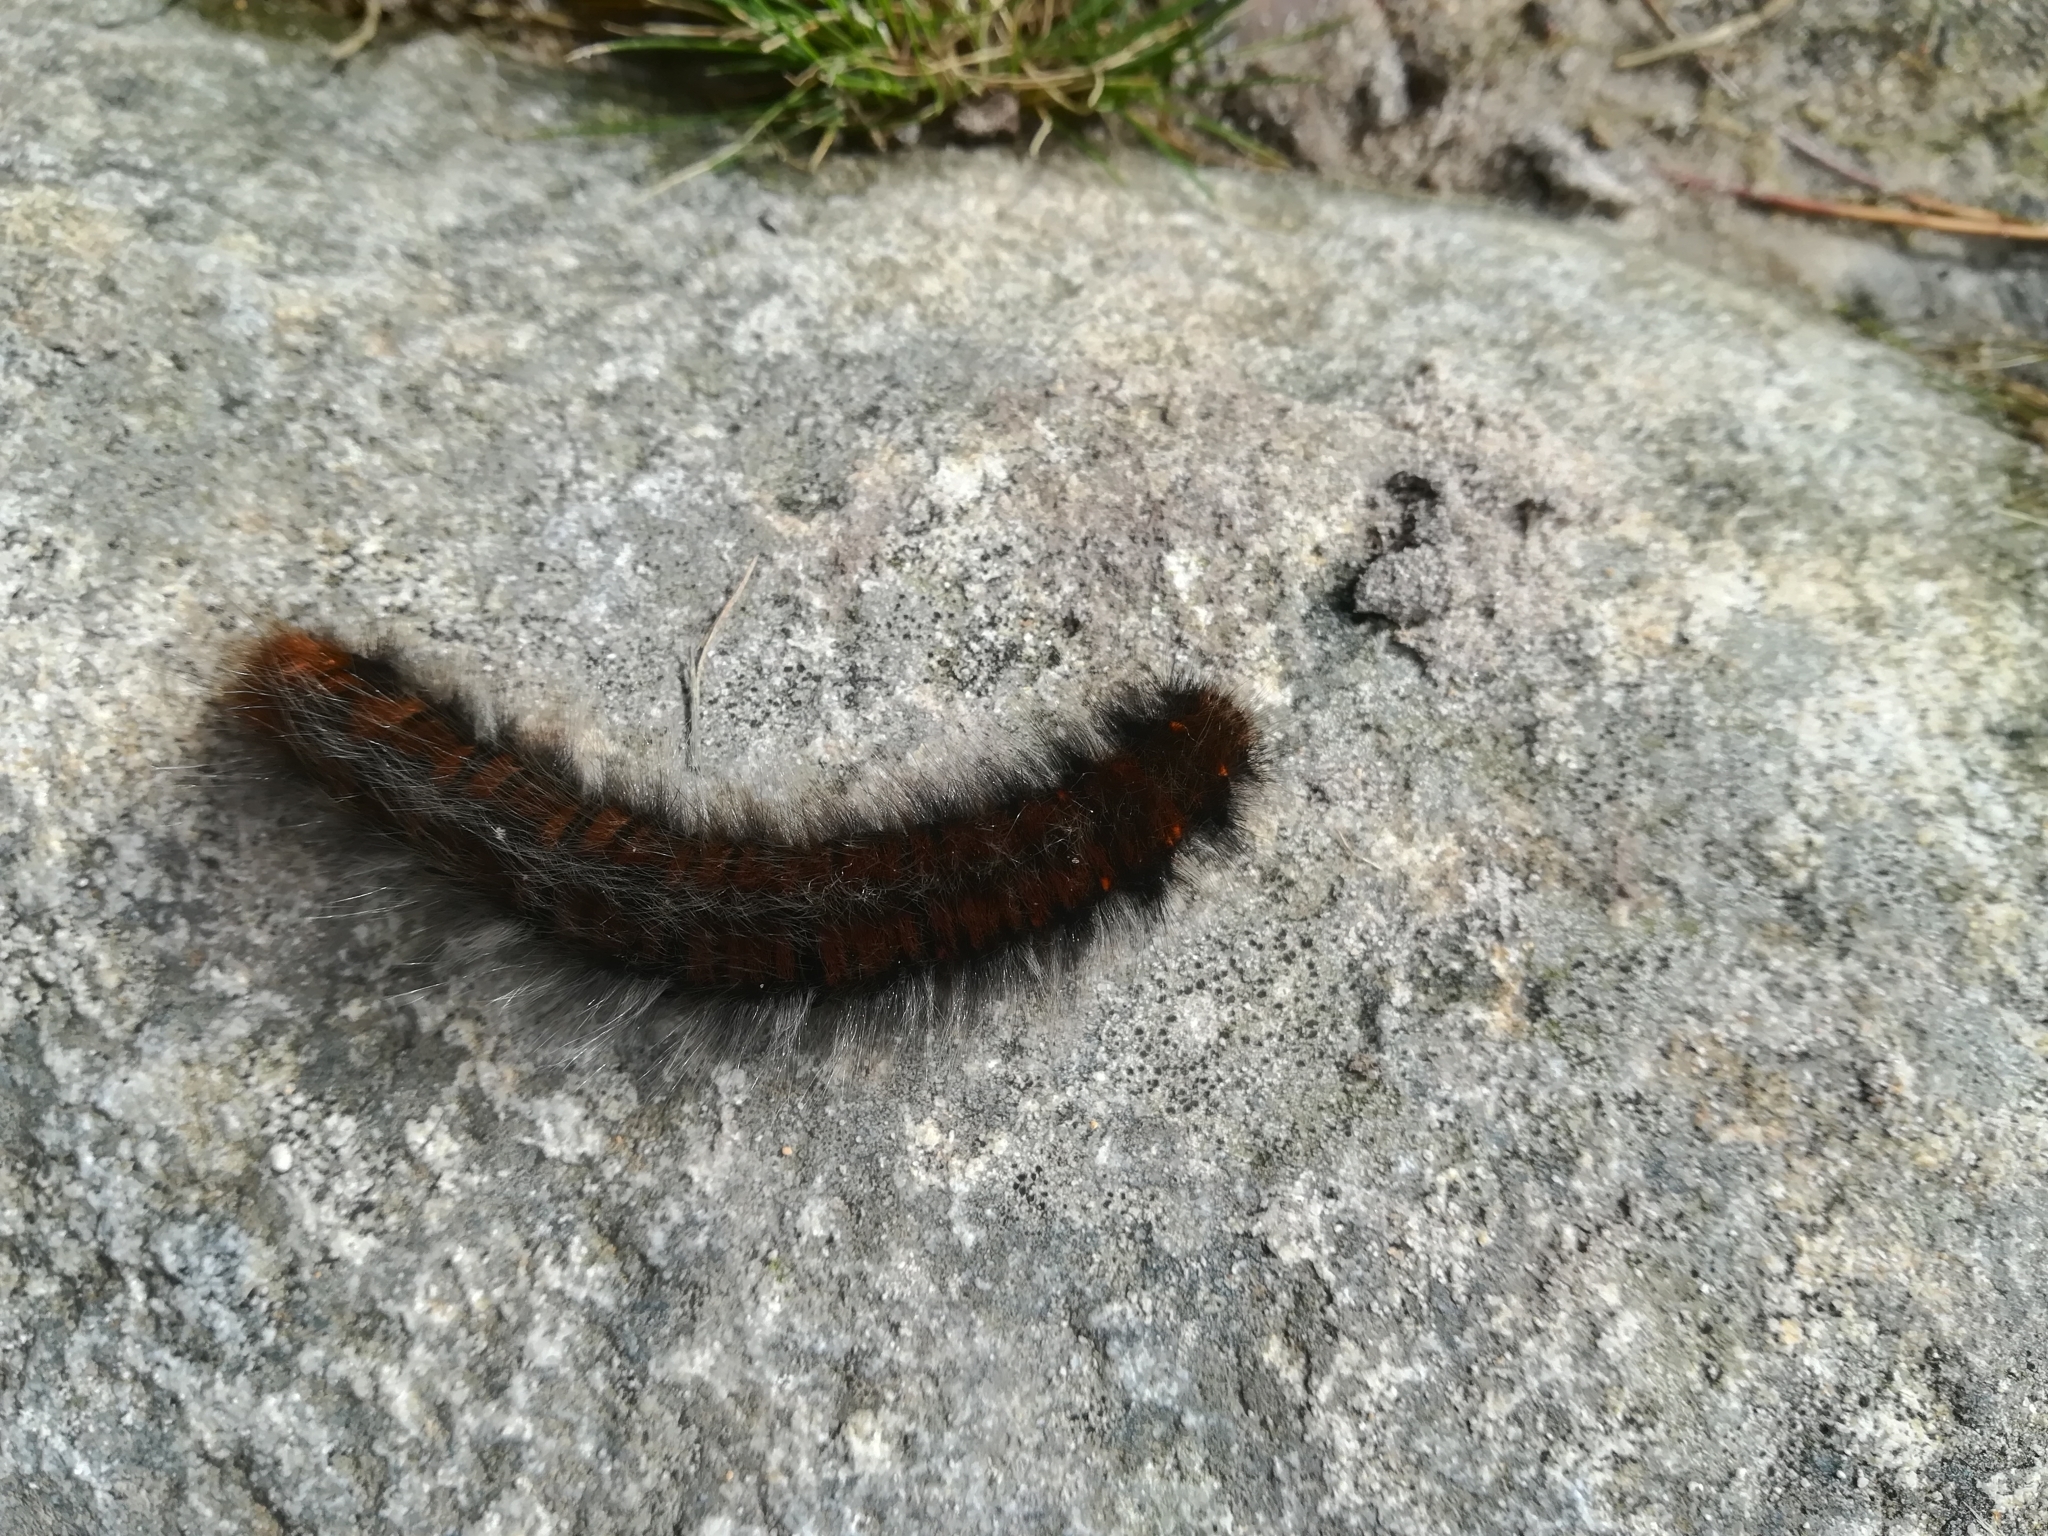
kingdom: Animalia
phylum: Arthropoda
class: Insecta
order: Lepidoptera
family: Lasiocampidae
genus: Macrothylacia
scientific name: Macrothylacia rubi
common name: Fox moth
